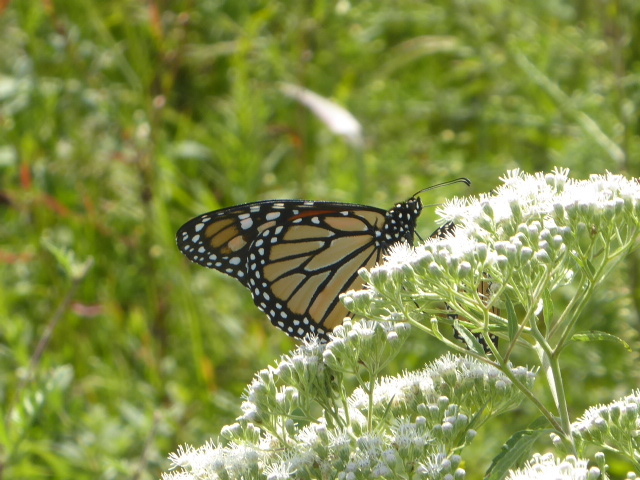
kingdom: Animalia
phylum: Arthropoda
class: Insecta
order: Lepidoptera
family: Nymphalidae
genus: Danaus
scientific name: Danaus plexippus
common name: Monarch
